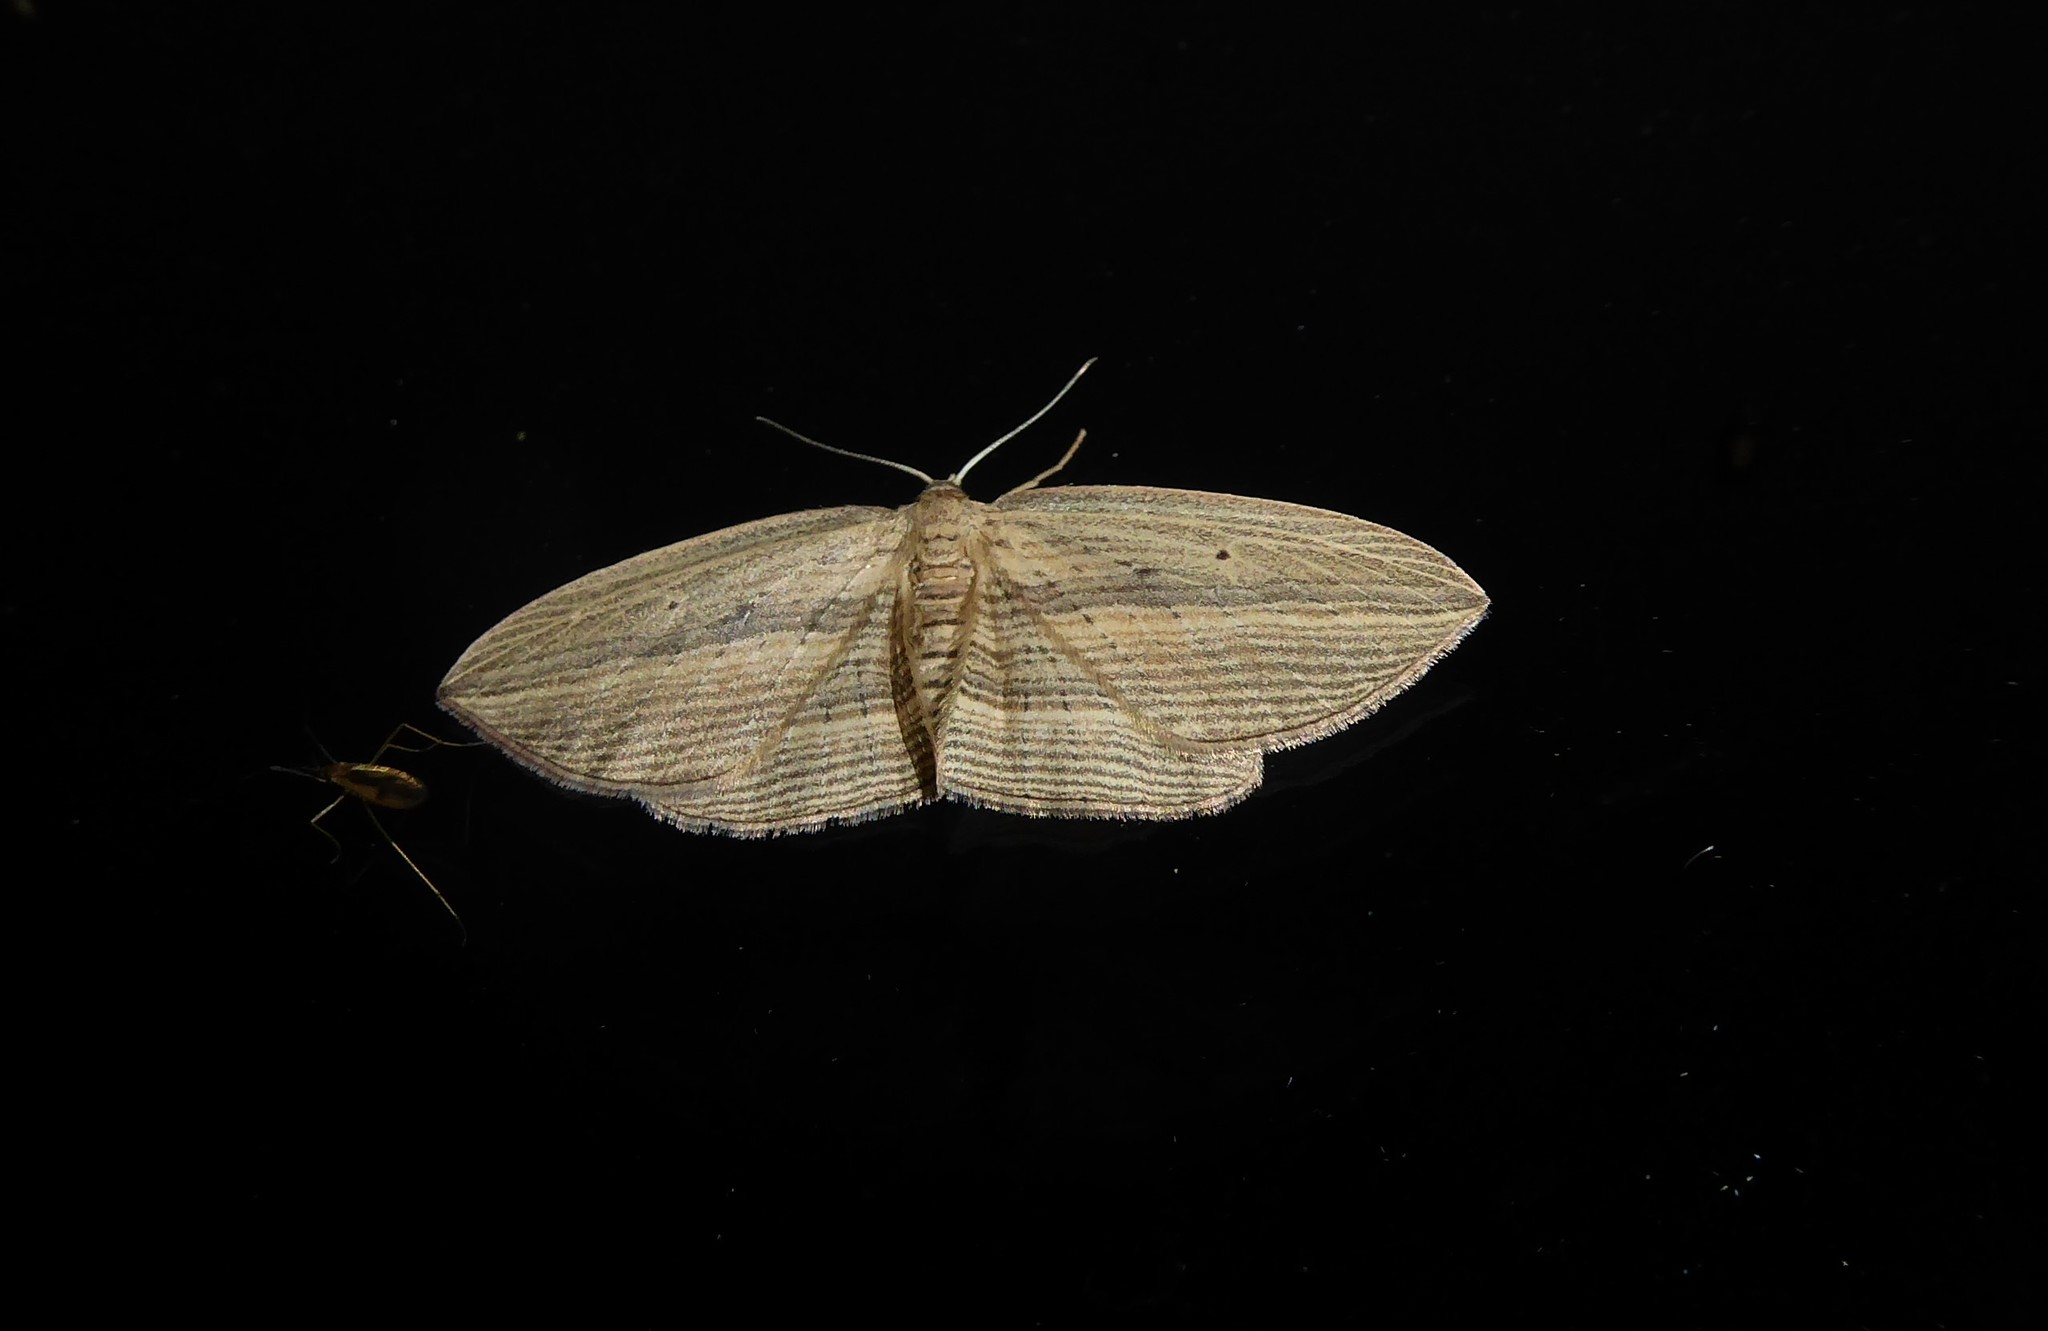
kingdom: Animalia
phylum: Arthropoda
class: Insecta
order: Lepidoptera
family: Geometridae
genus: Epiphryne
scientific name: Epiphryne verriculata
